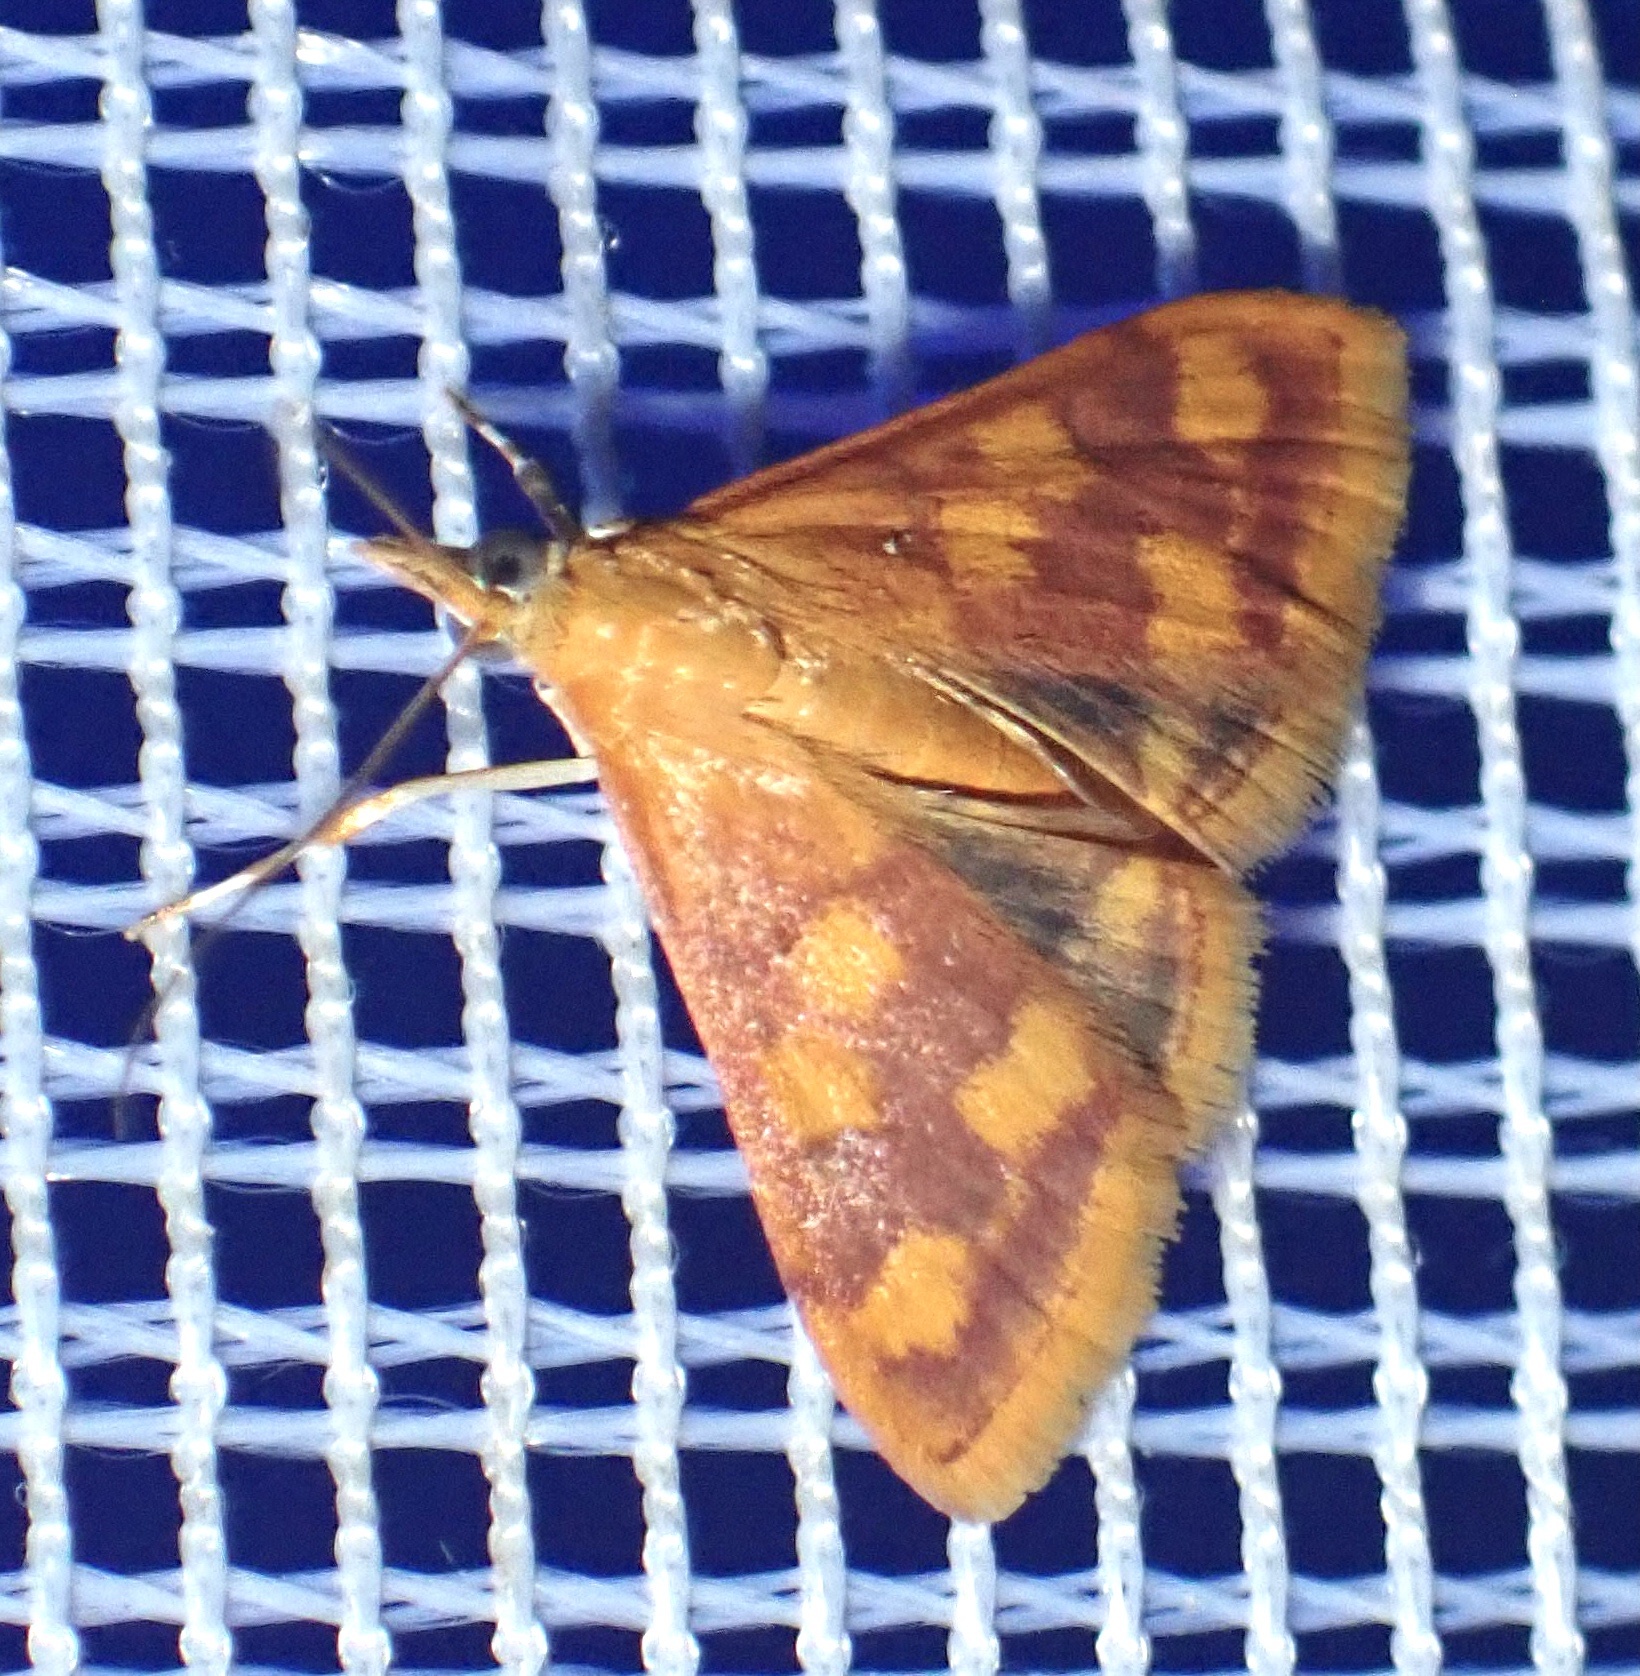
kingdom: Animalia
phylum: Arthropoda
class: Insecta
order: Lepidoptera
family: Crambidae
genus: Pyrausta
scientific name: Pyrausta phoenicealis
